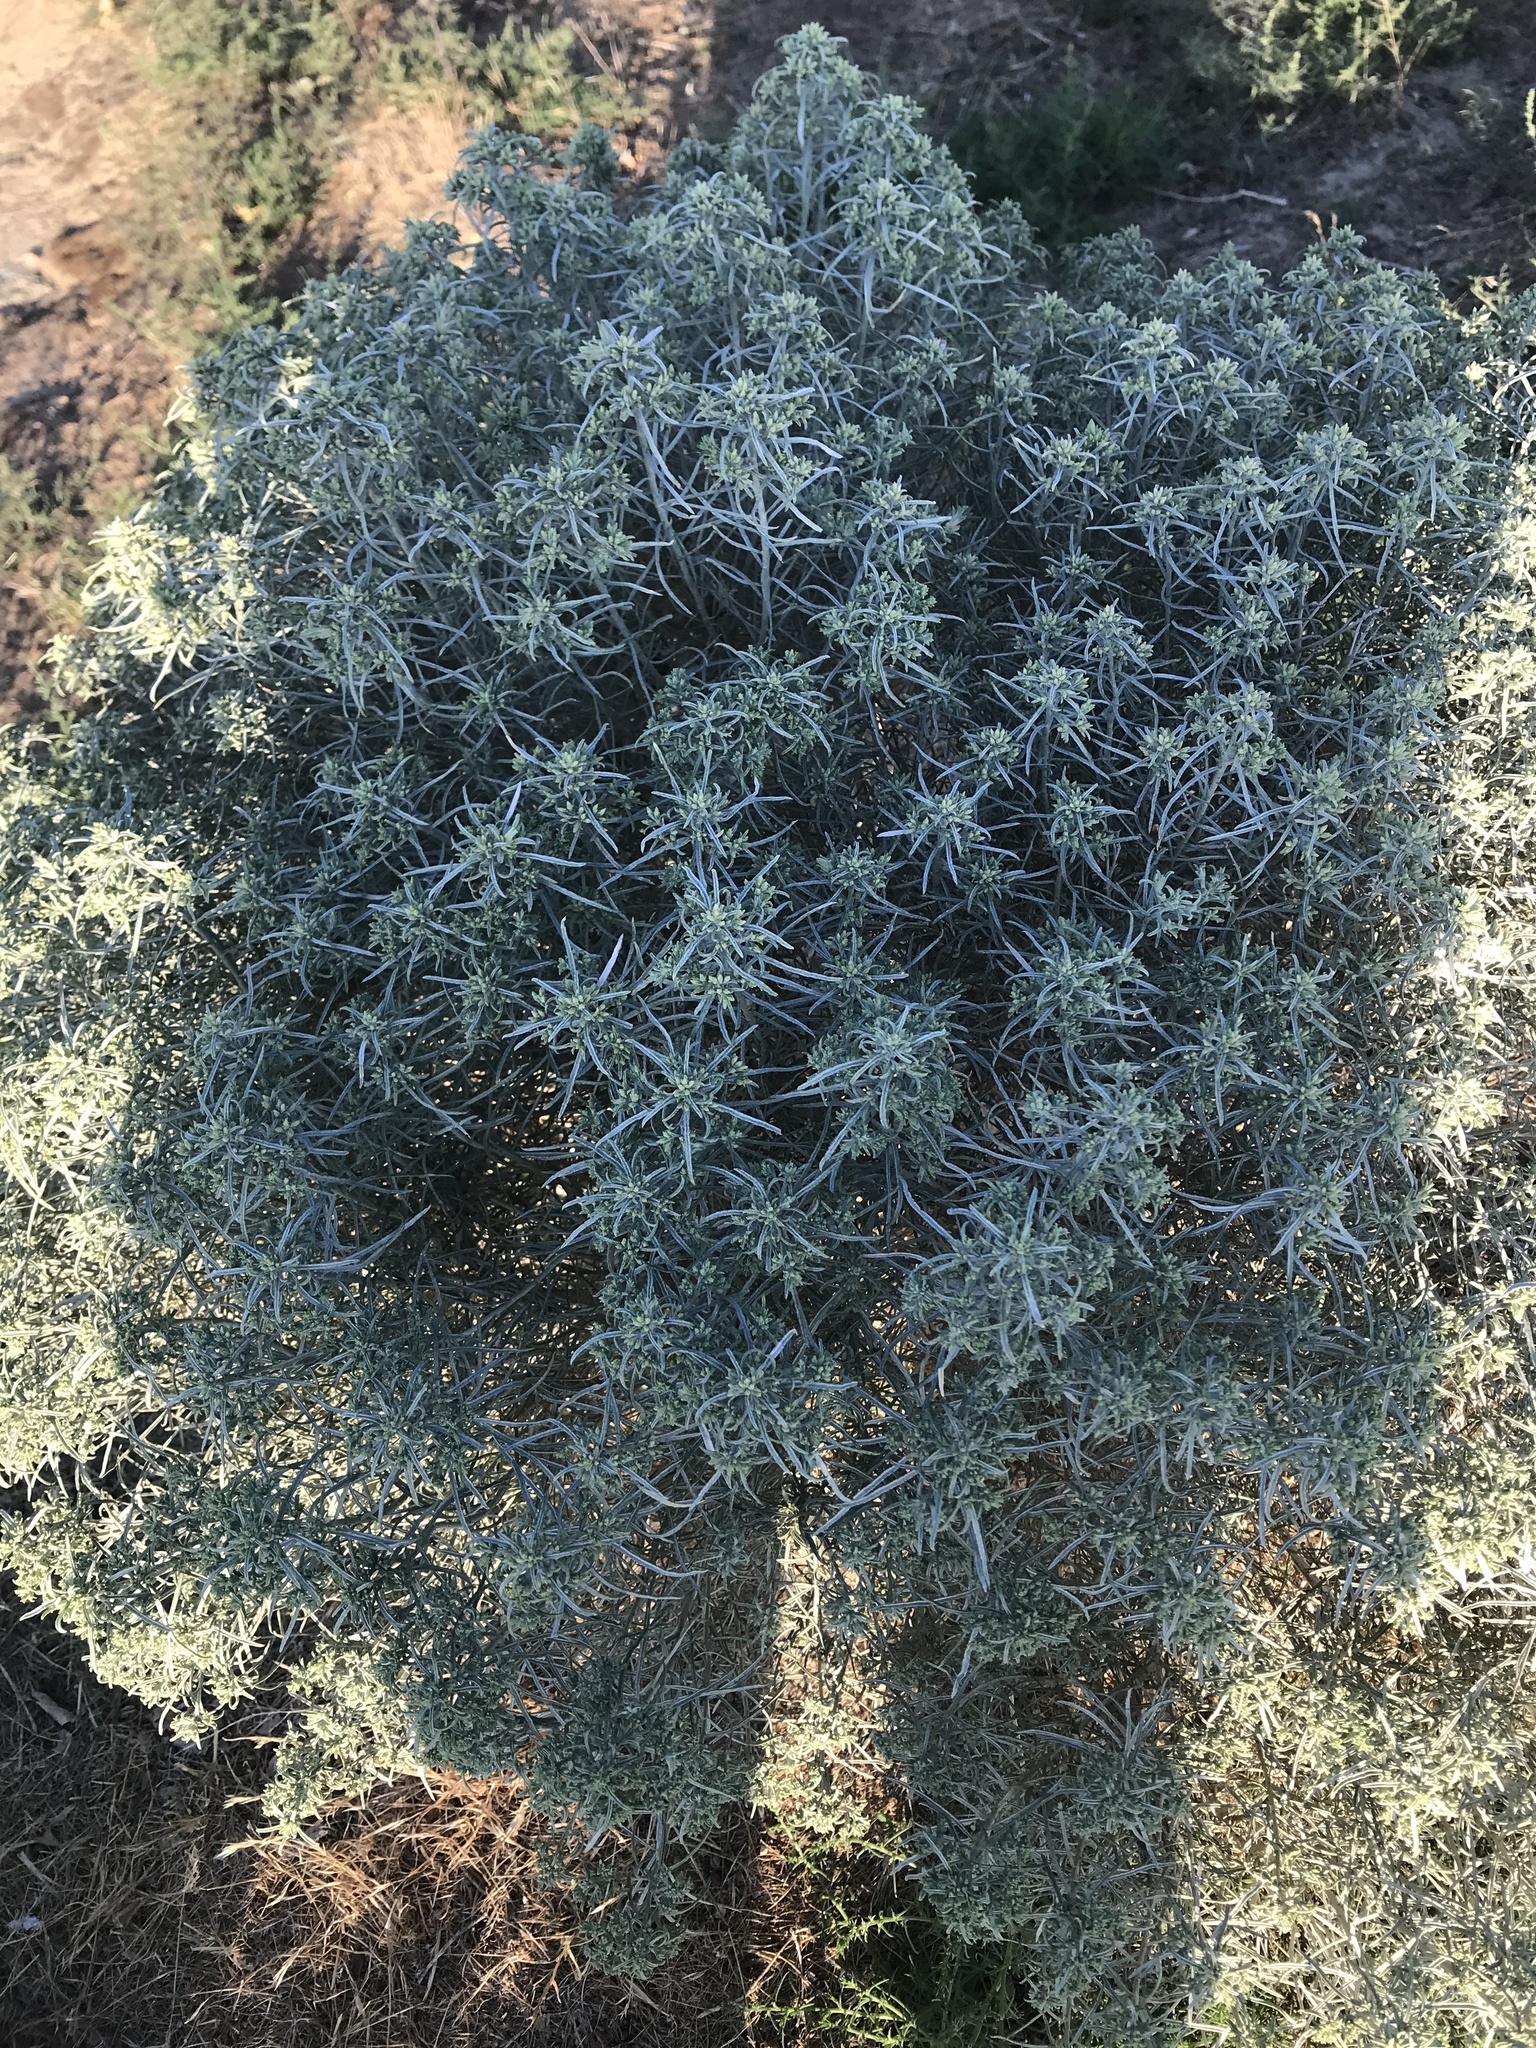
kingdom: Plantae
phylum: Tracheophyta
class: Magnoliopsida
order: Asterales
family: Asteraceae
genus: Ericameria
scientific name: Ericameria nauseosa
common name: Rubber rabbitbrush
